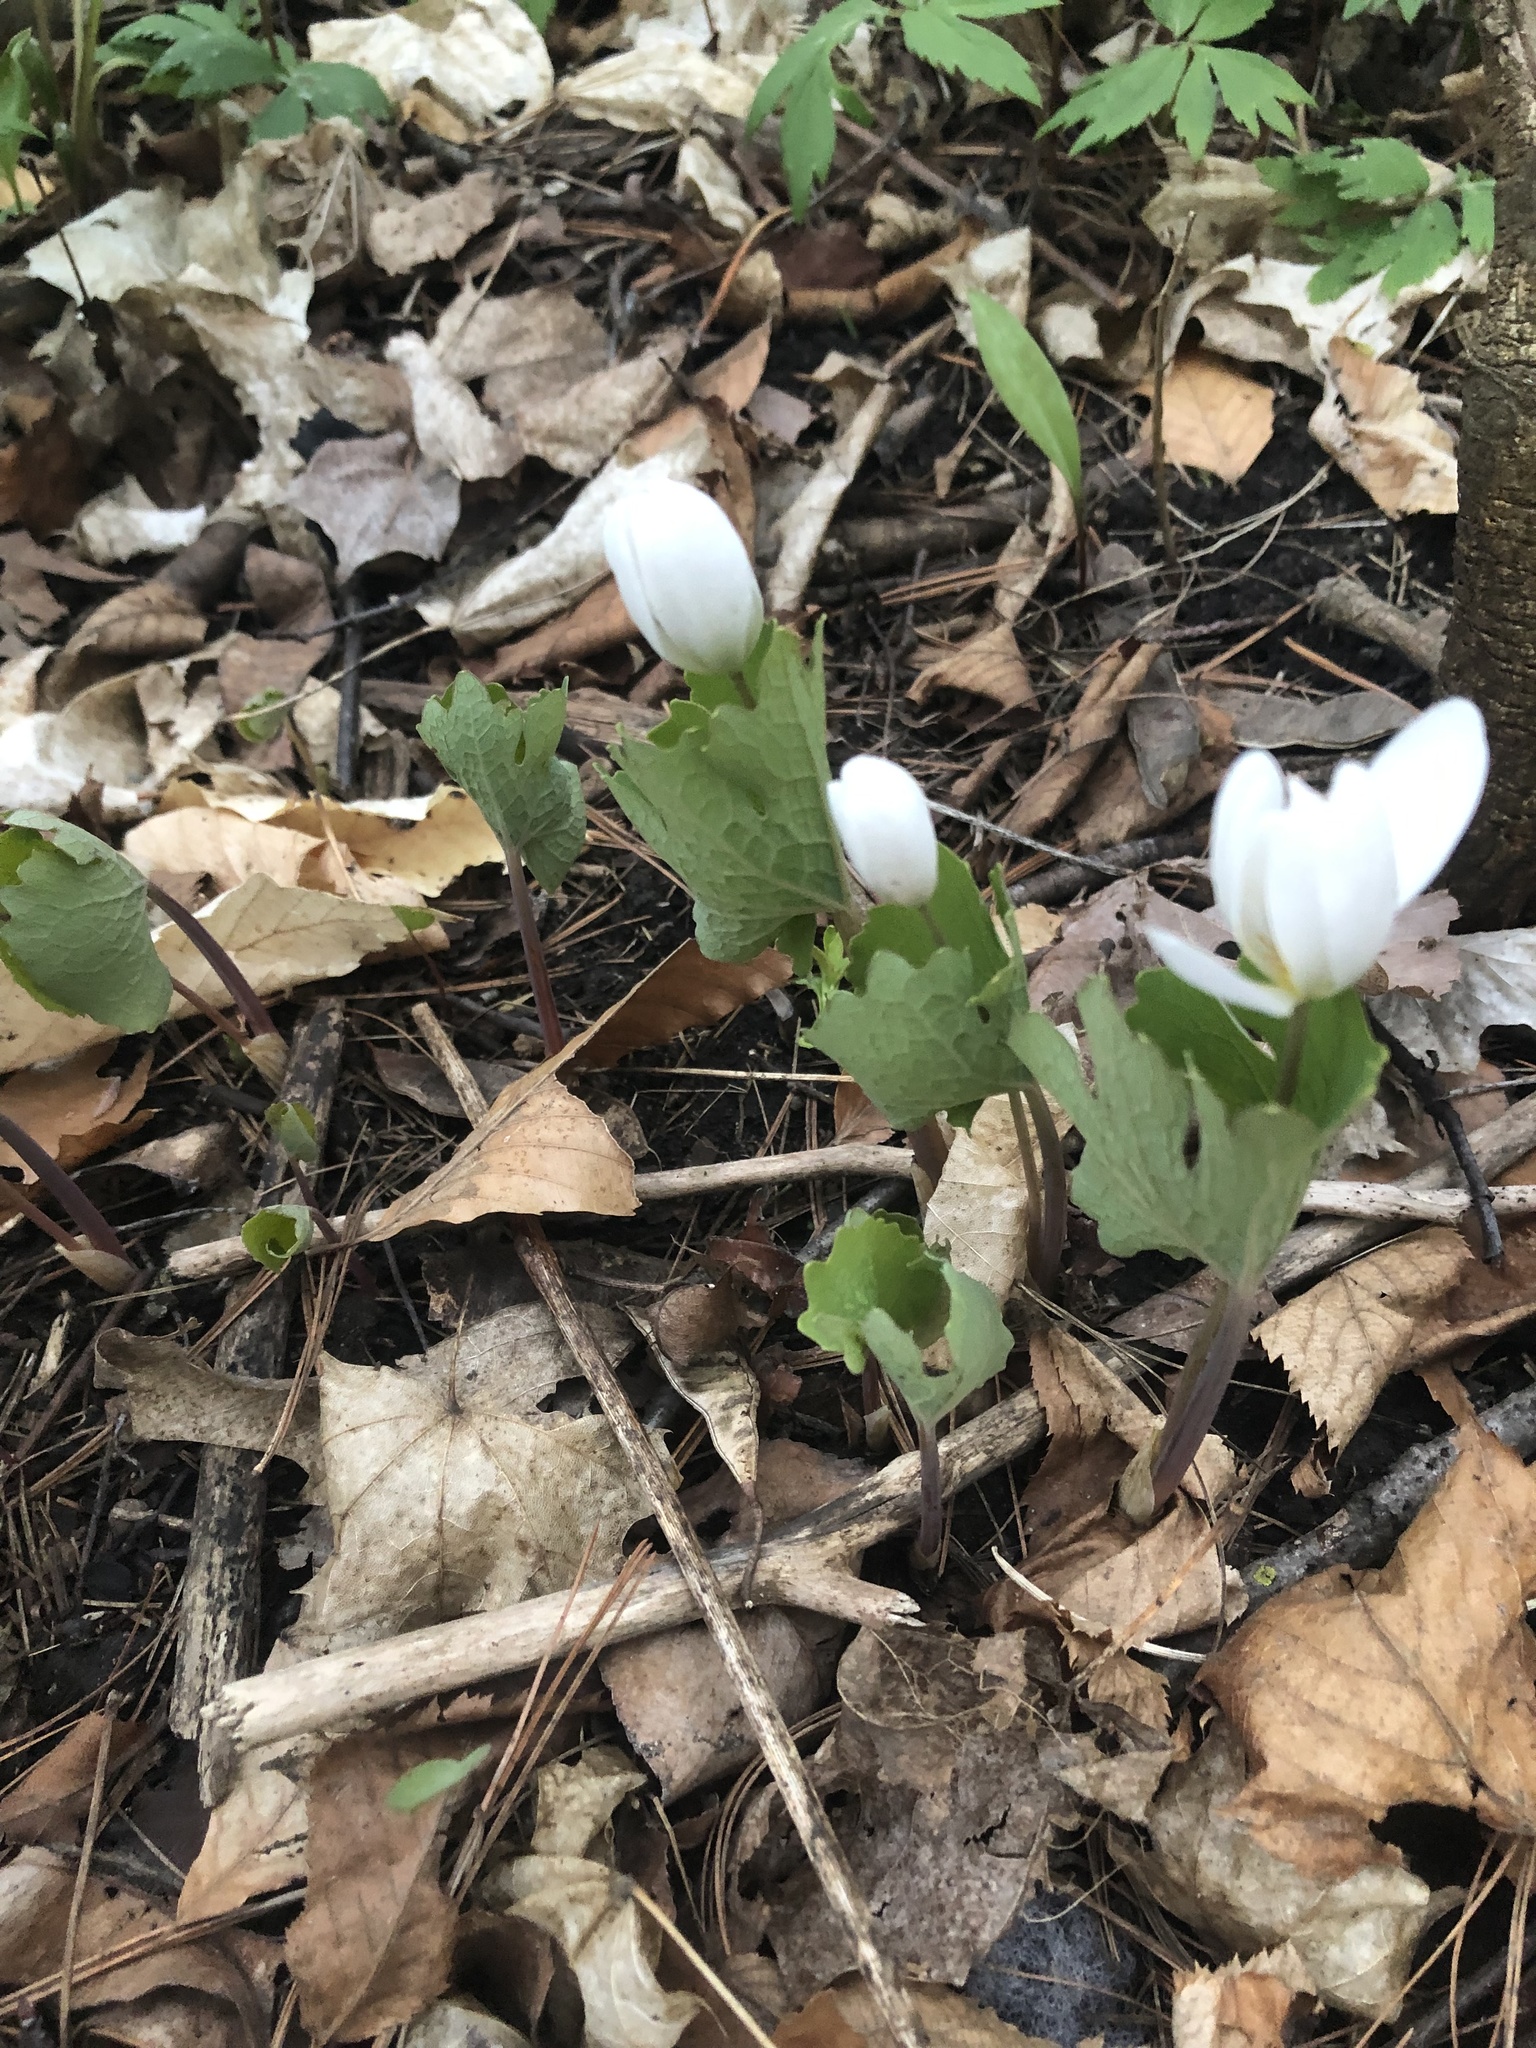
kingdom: Plantae
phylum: Tracheophyta
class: Magnoliopsida
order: Ranunculales
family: Papaveraceae
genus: Sanguinaria
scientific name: Sanguinaria canadensis
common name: Bloodroot
